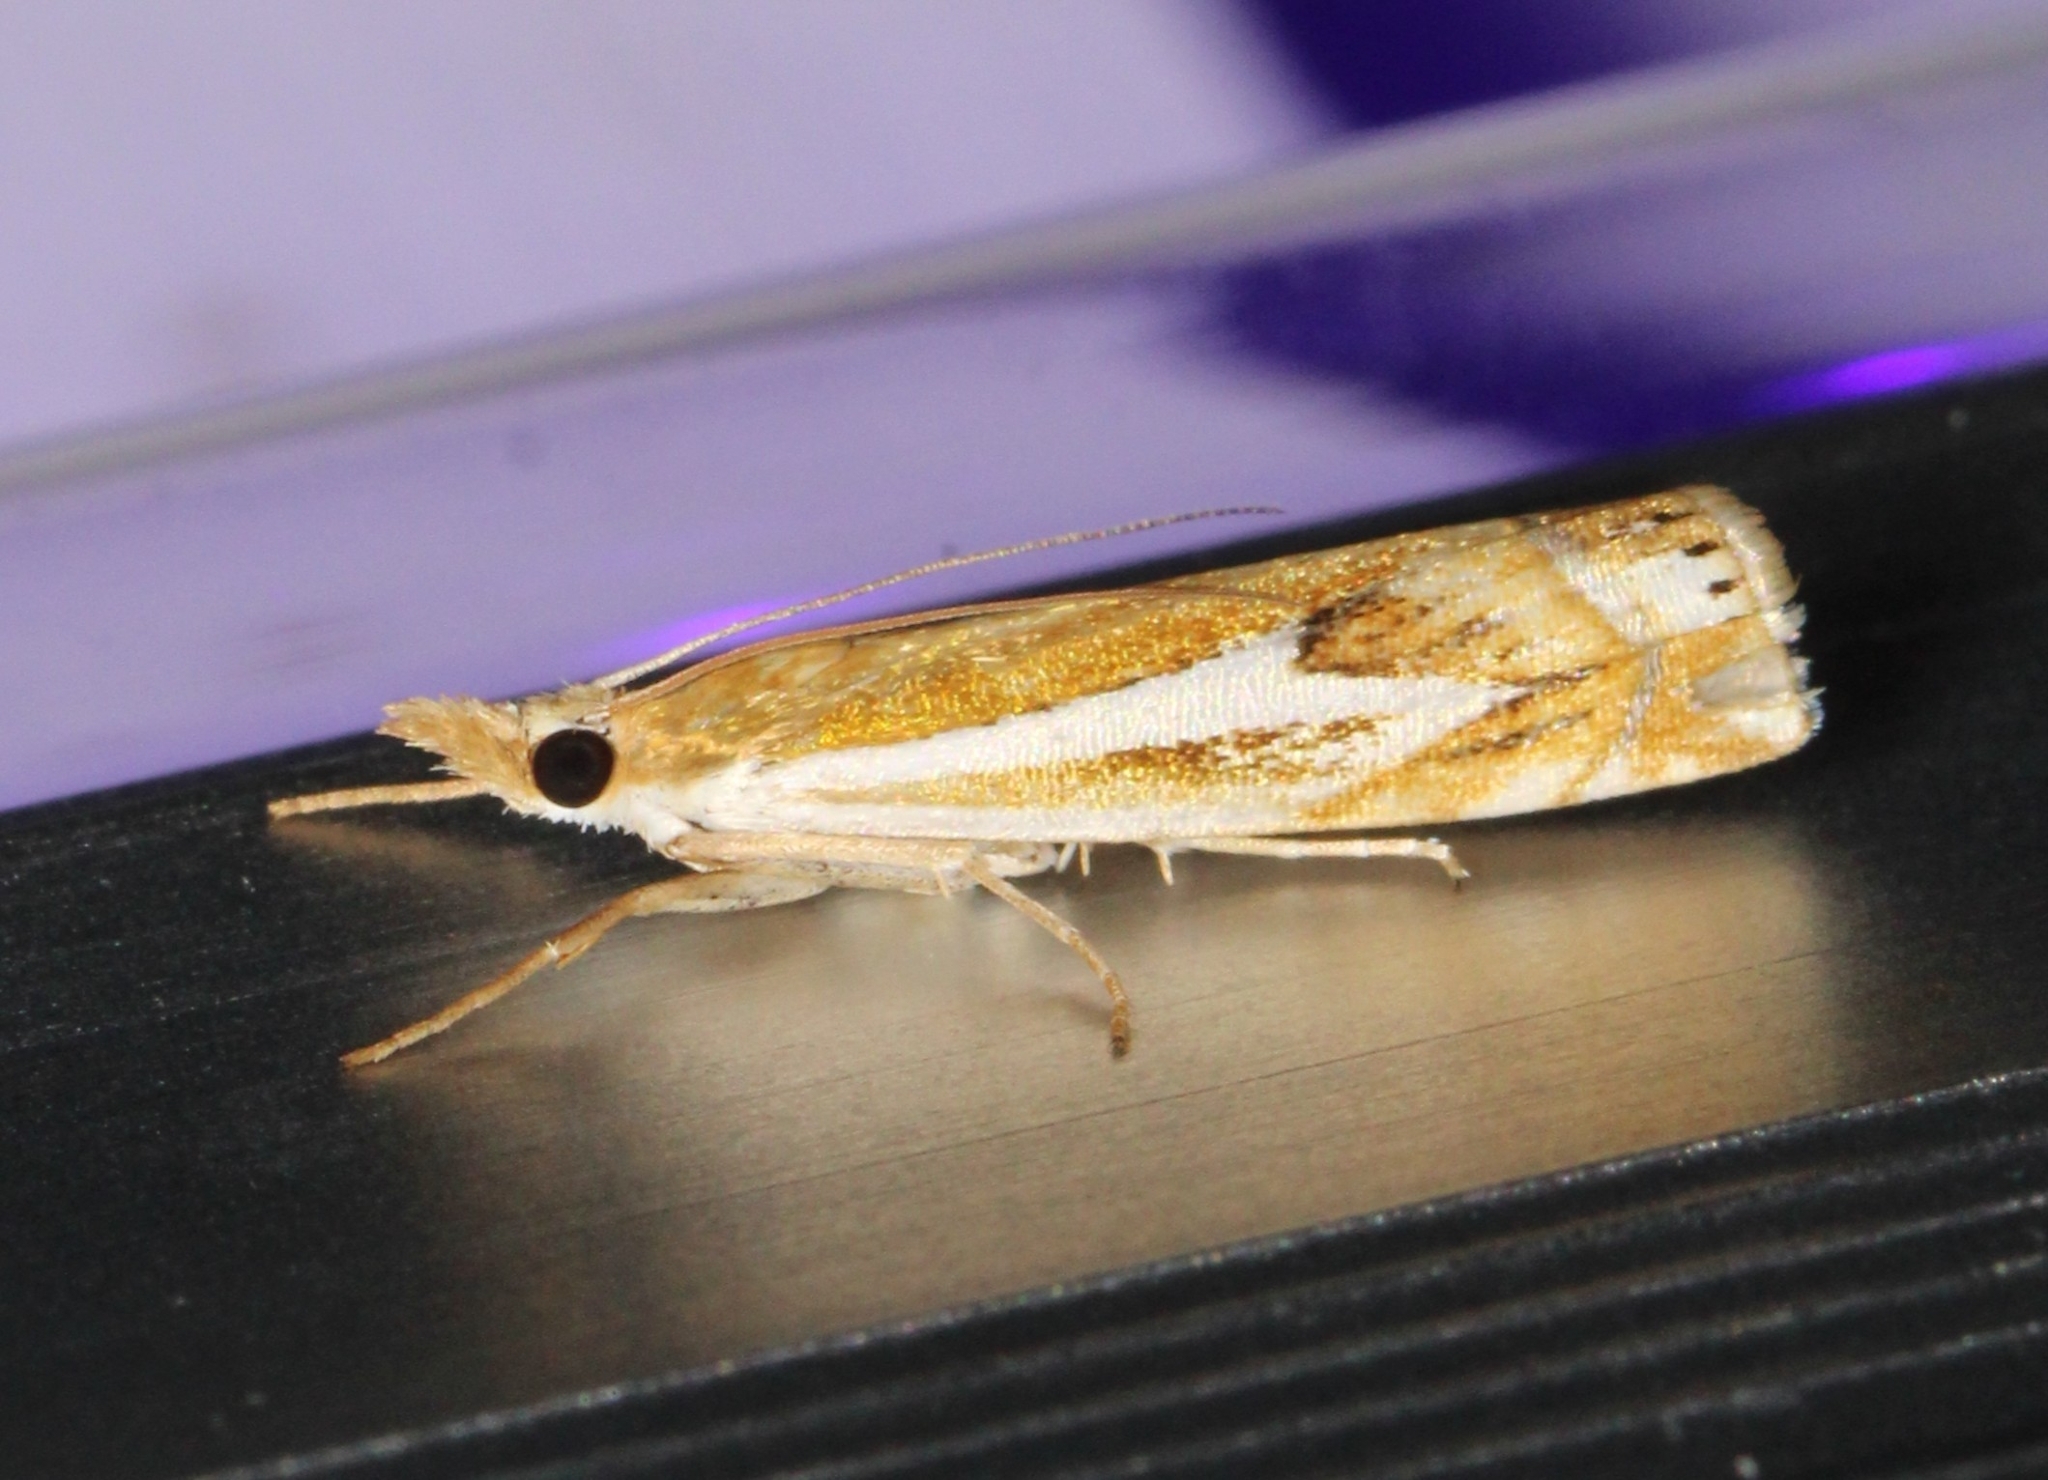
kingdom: Animalia
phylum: Arthropoda
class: Insecta
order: Lepidoptera
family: Crambidae
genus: Crambus
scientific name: Crambus bidens
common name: Forked grass-veneer
